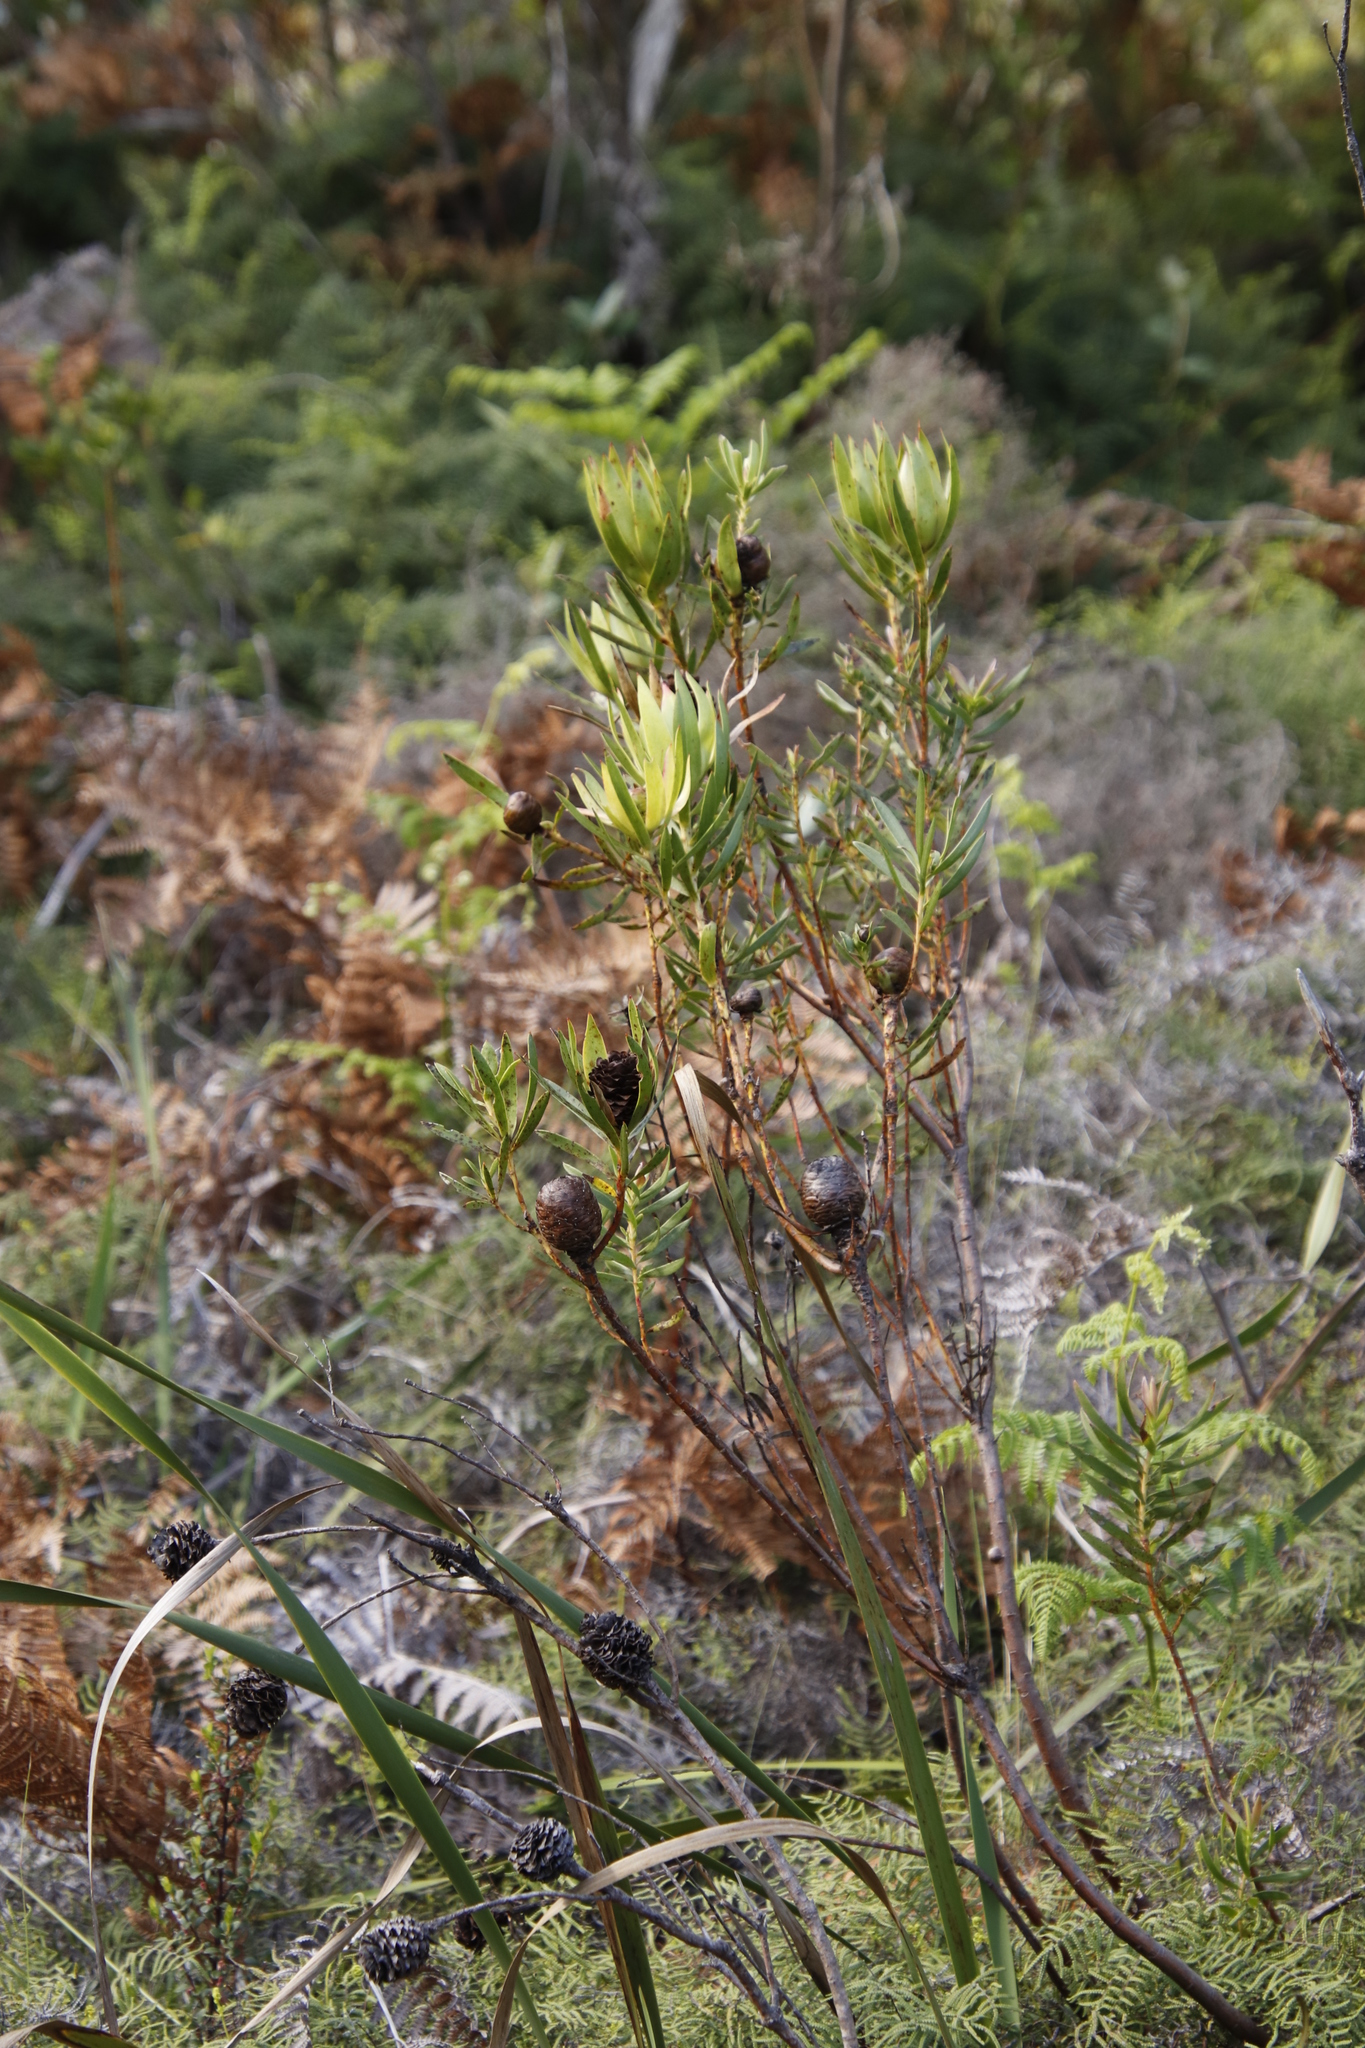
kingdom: Plantae
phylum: Tracheophyta
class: Magnoliopsida
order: Proteales
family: Proteaceae
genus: Leucadendron
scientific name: Leucadendron spissifolium
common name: Spear-leaf conebush
